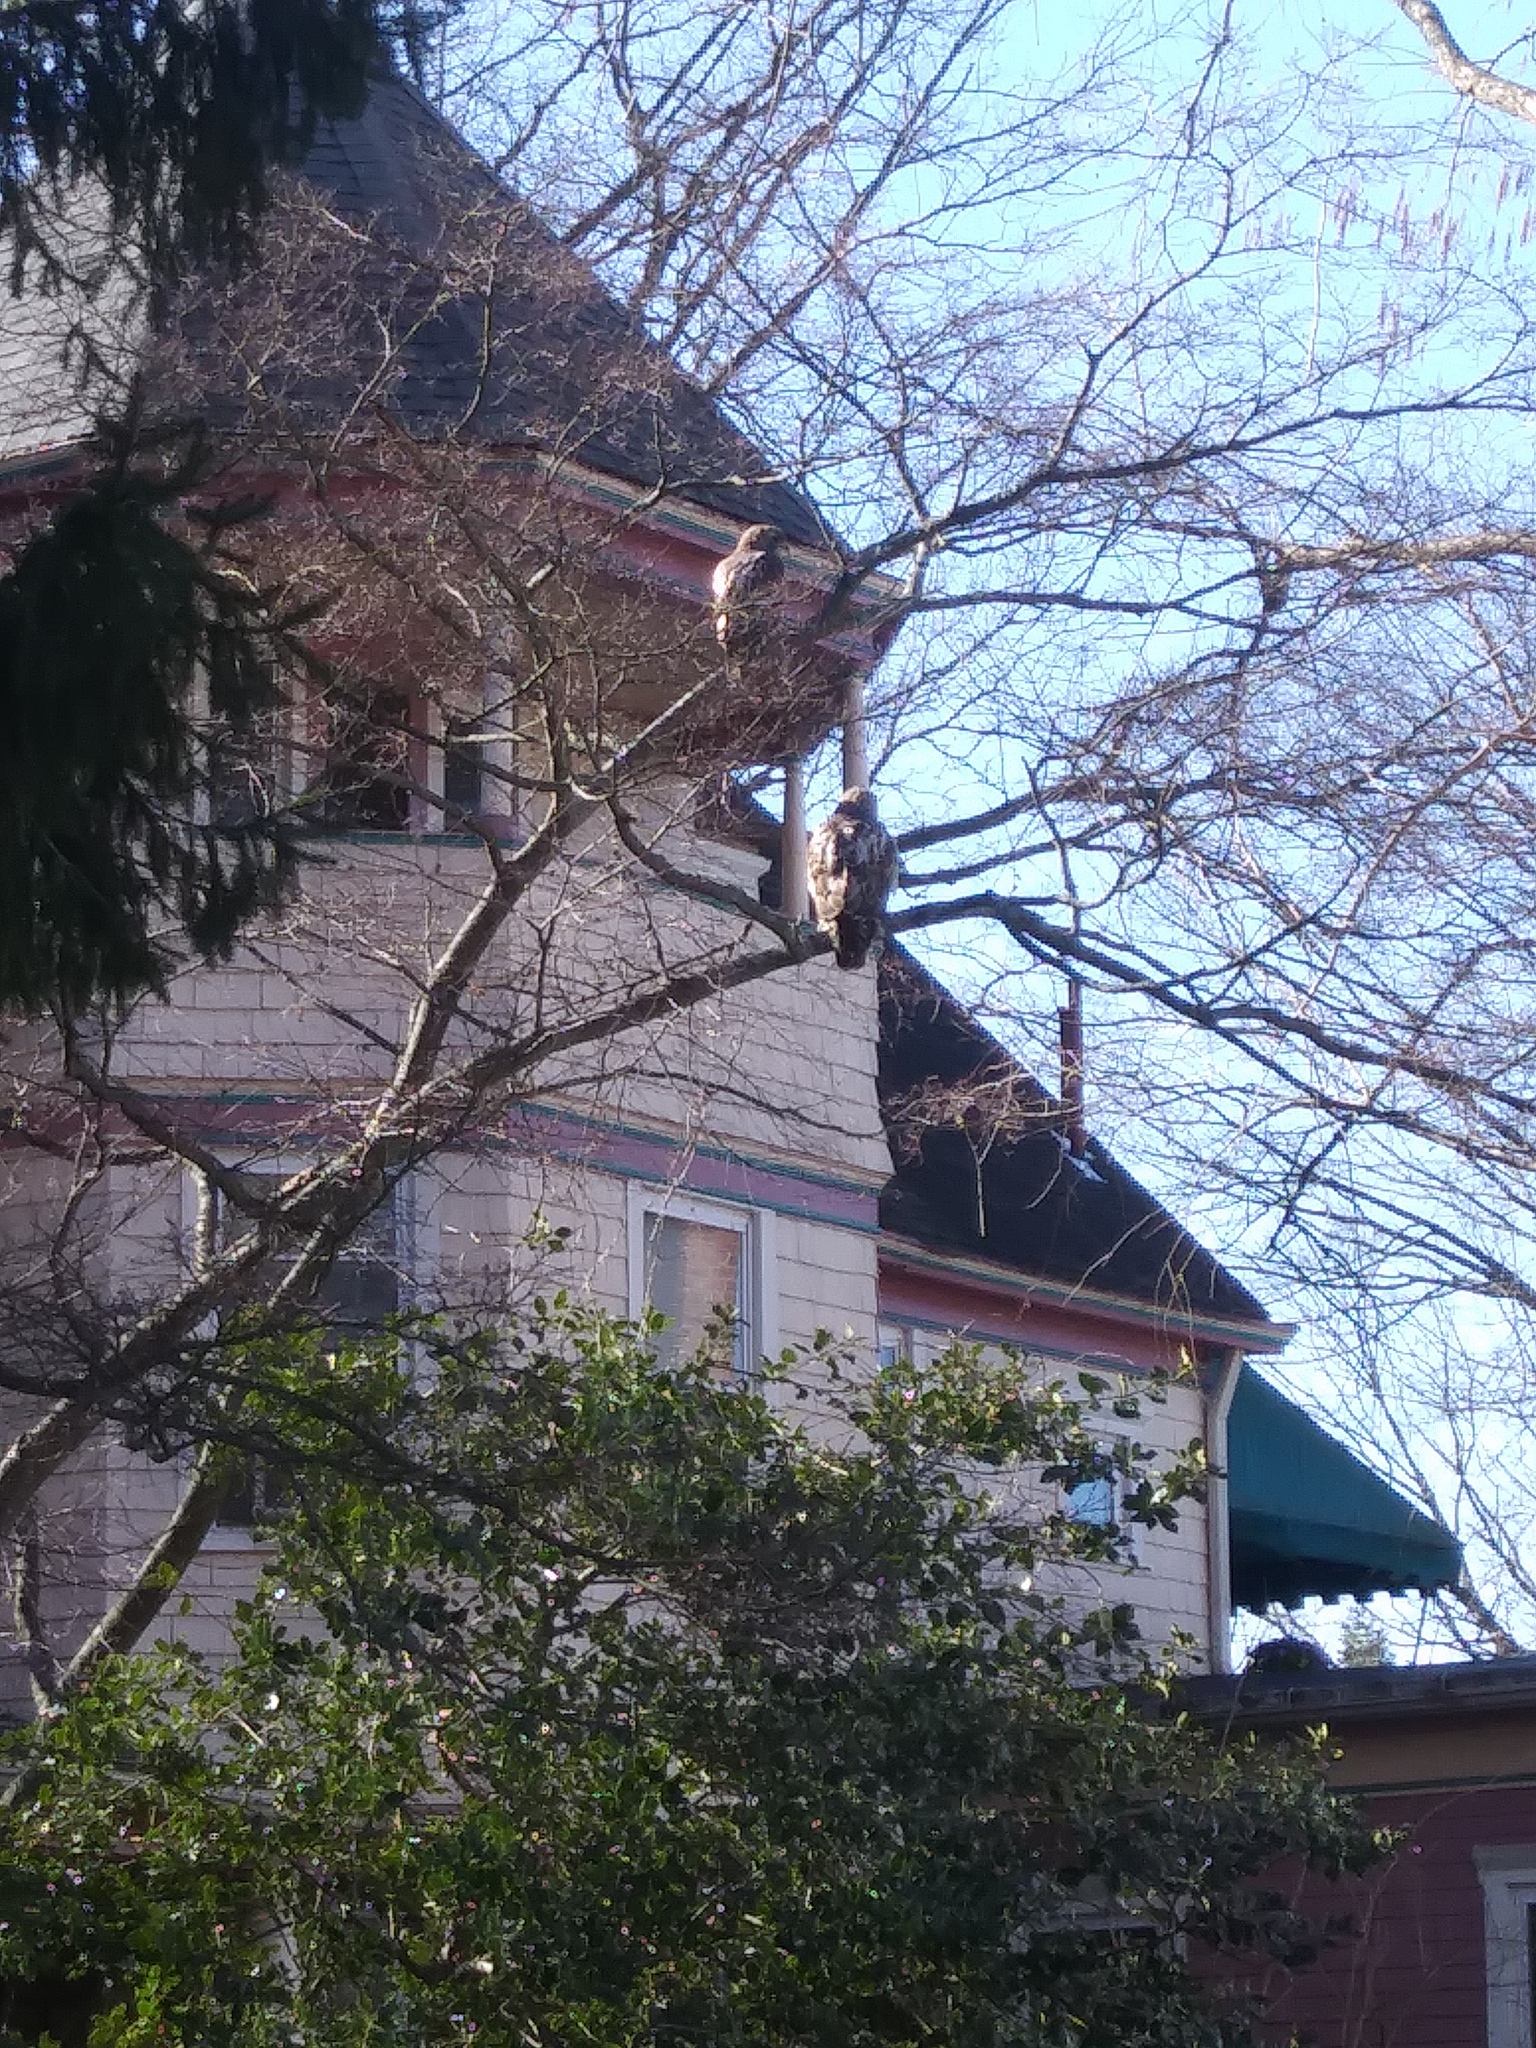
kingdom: Animalia
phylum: Chordata
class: Aves
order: Accipitriformes
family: Accipitridae
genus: Buteo
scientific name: Buteo jamaicensis
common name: Red-tailed hawk
